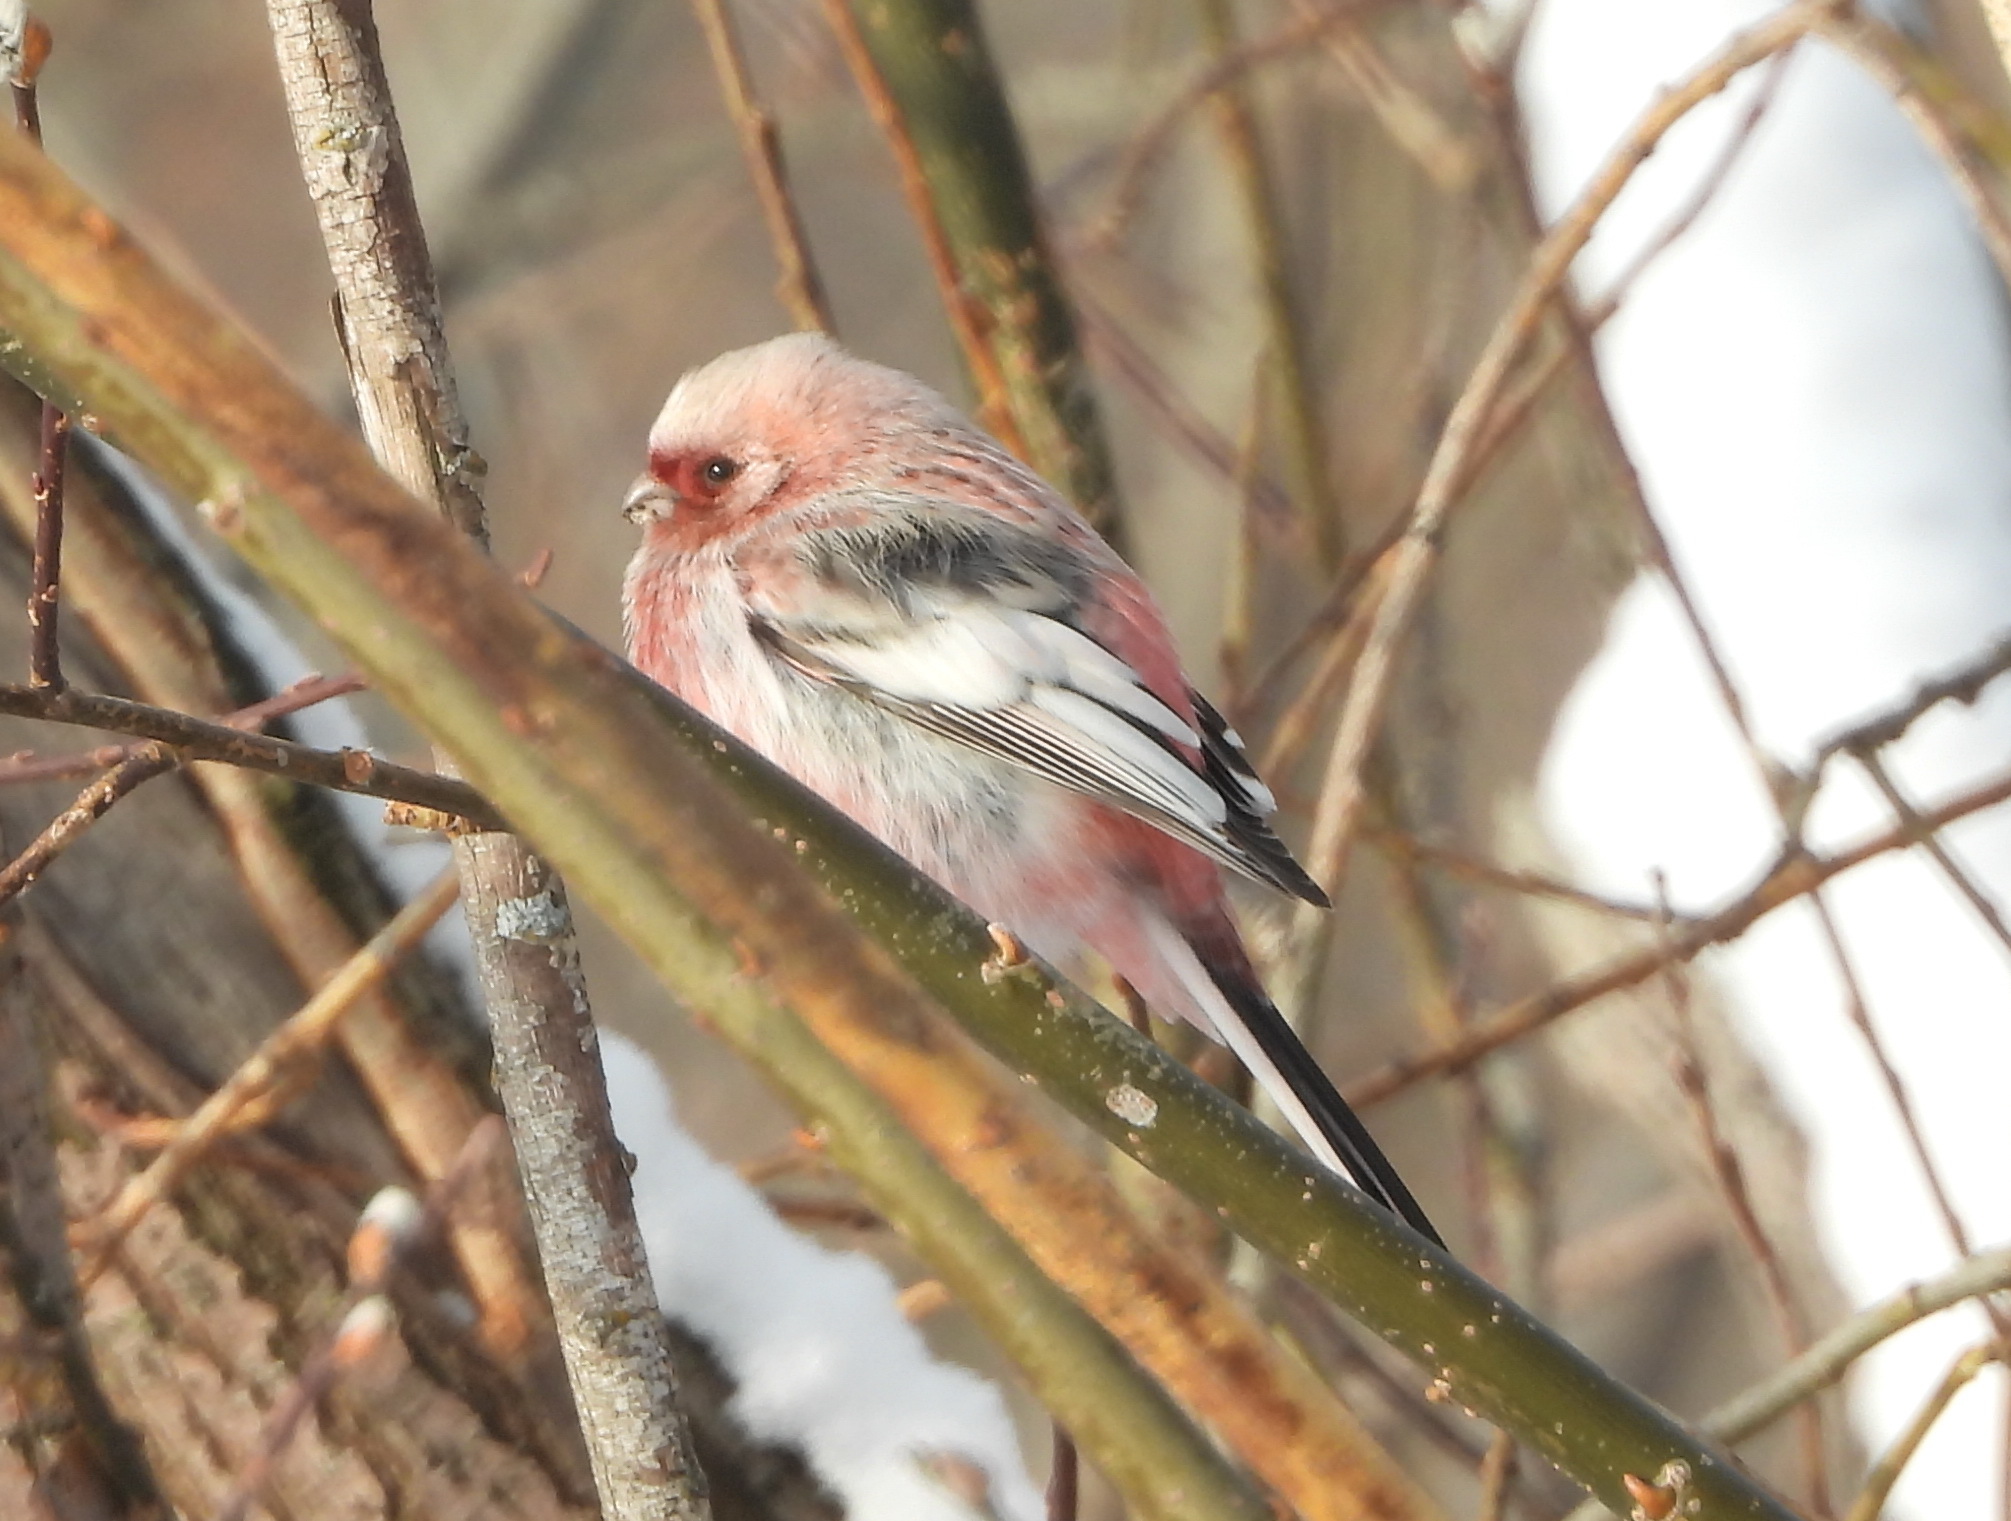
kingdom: Animalia
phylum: Chordata
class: Aves
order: Passeriformes
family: Fringillidae
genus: Carpodacus
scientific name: Carpodacus sibiricus
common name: Long-tailed rosefinch
